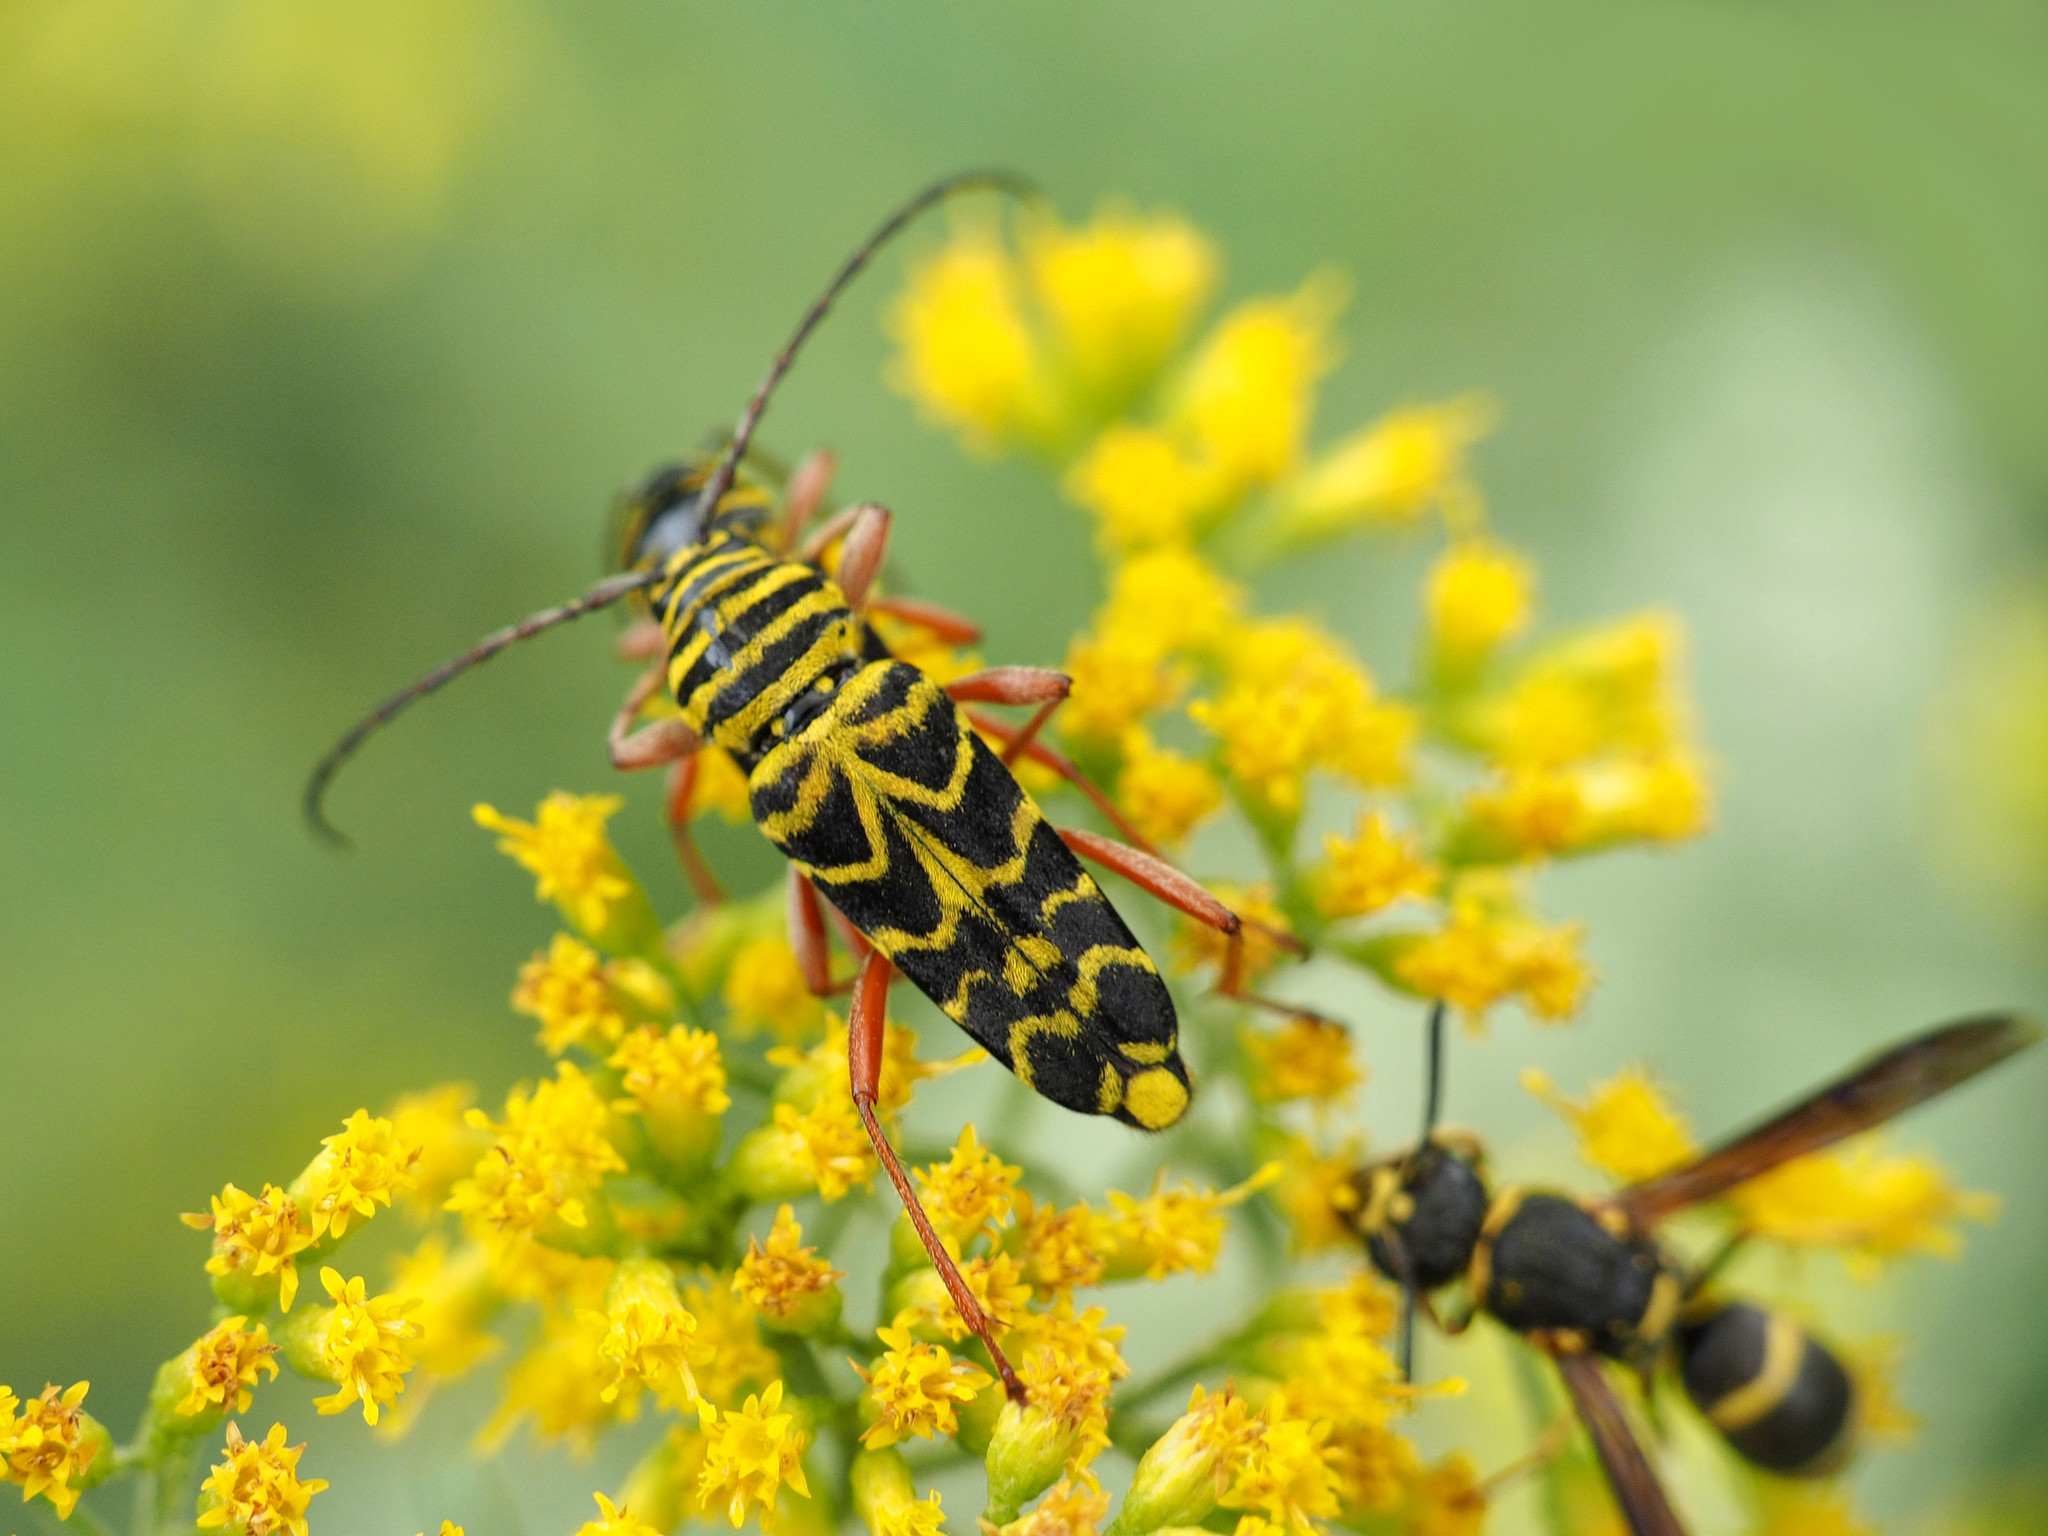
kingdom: Animalia
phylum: Arthropoda
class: Insecta
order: Coleoptera
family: Cerambycidae
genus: Megacyllene
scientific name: Megacyllene robiniae
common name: Locust borer
